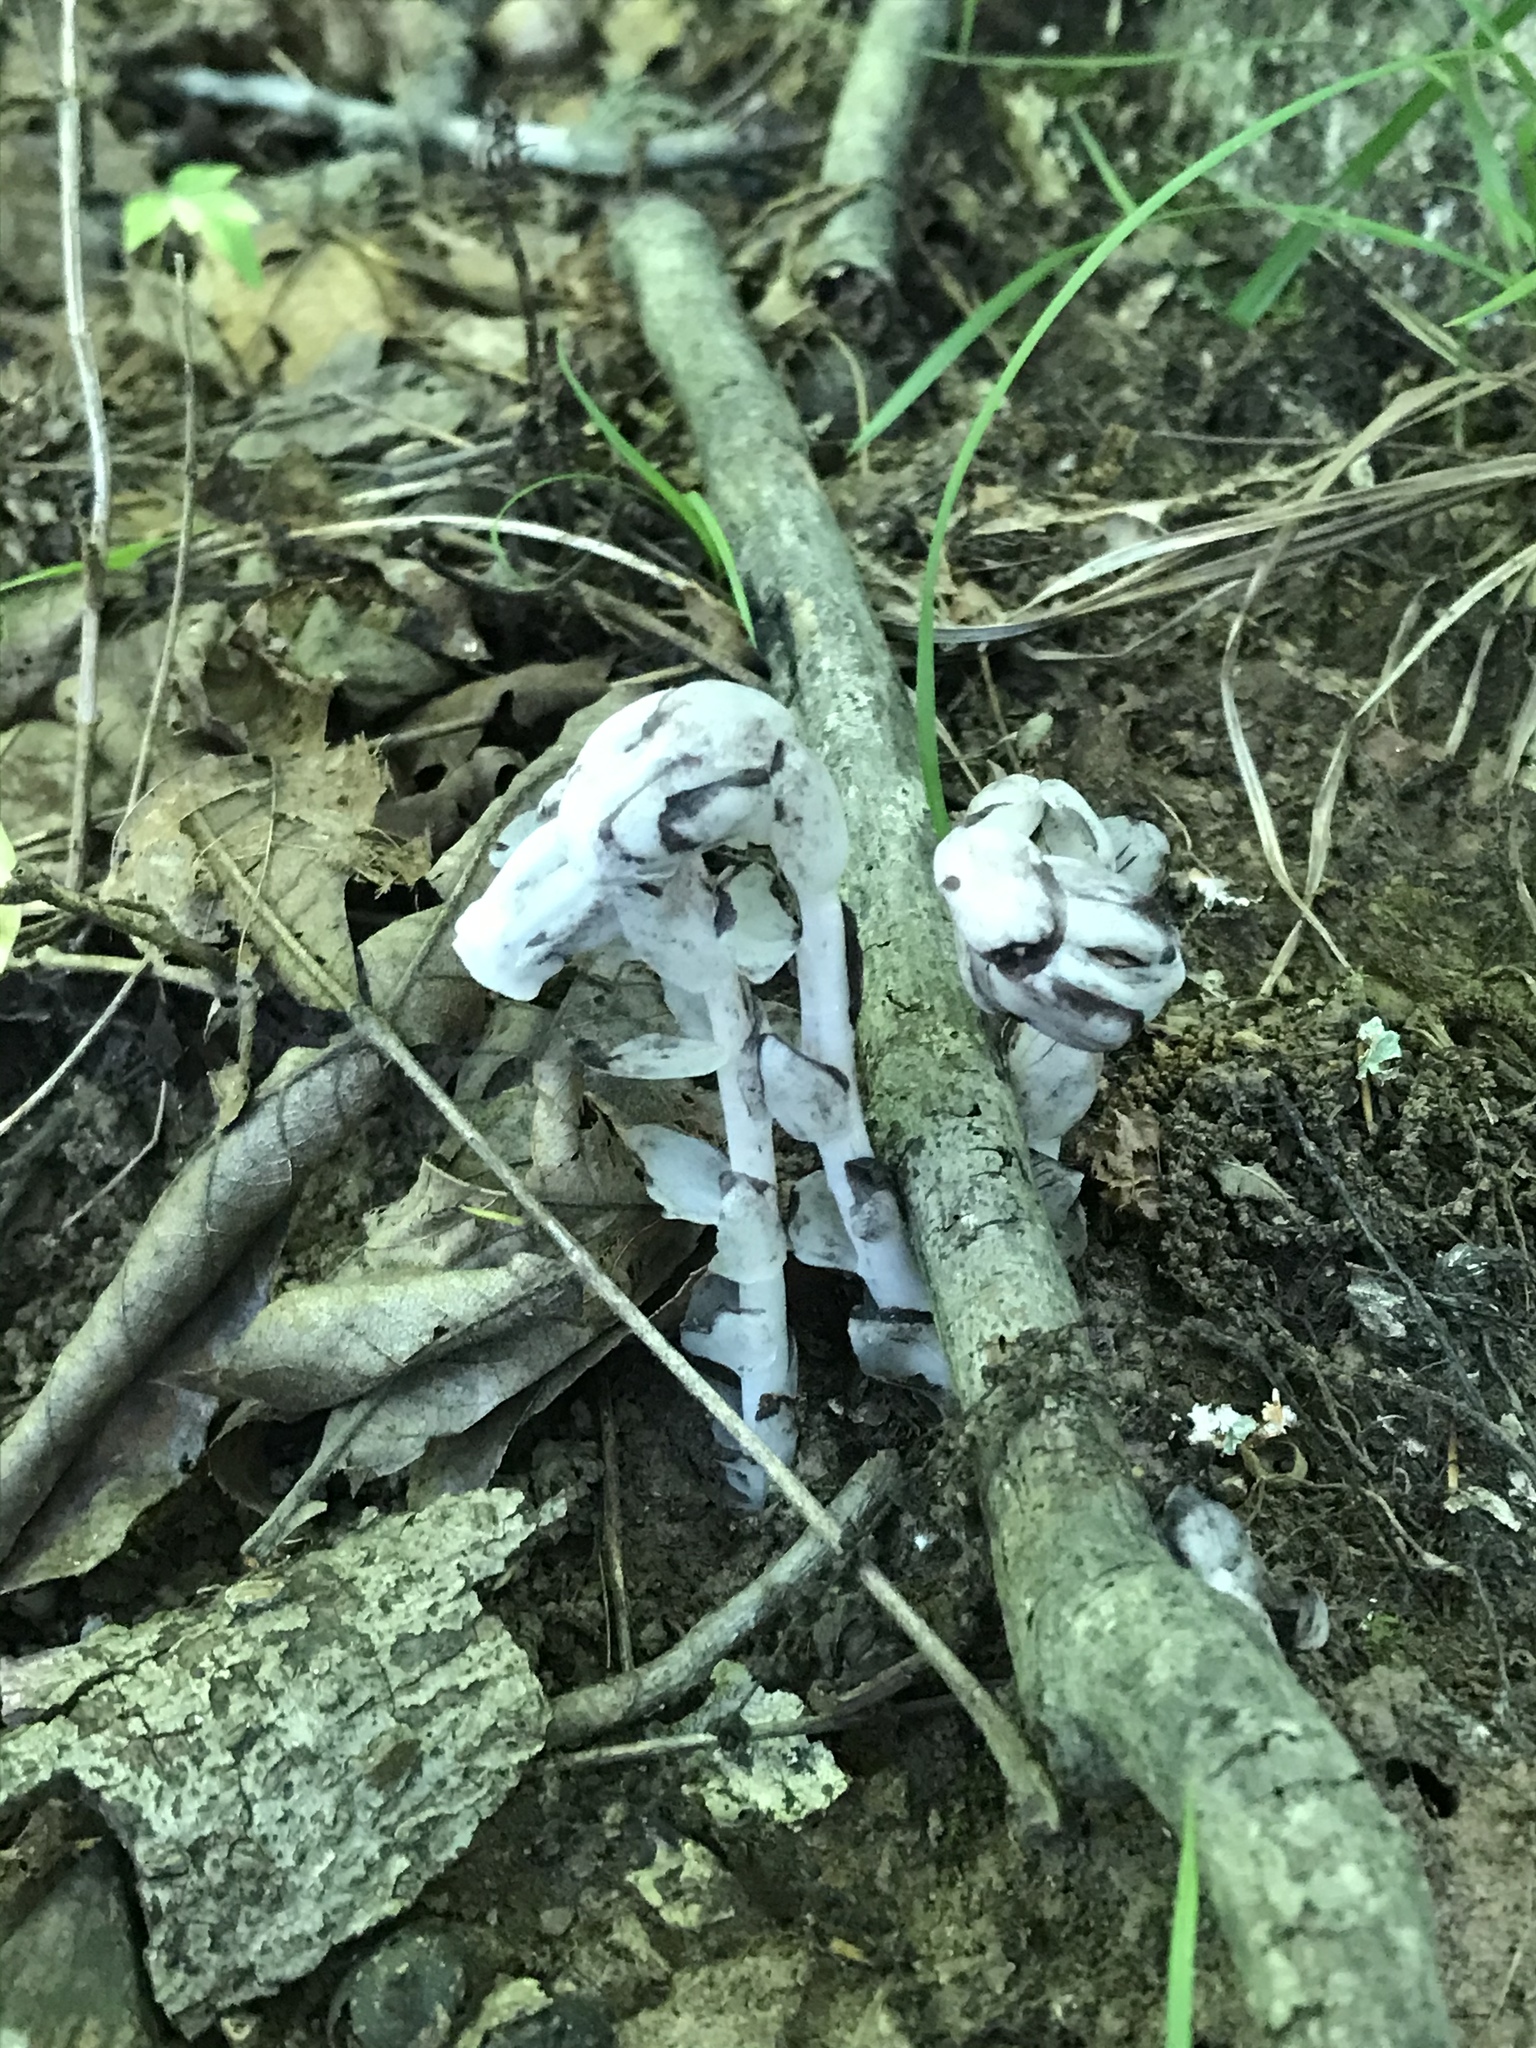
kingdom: Plantae
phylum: Tracheophyta
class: Magnoliopsida
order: Ericales
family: Ericaceae
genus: Monotropa
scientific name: Monotropa uniflora
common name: Convulsion root
